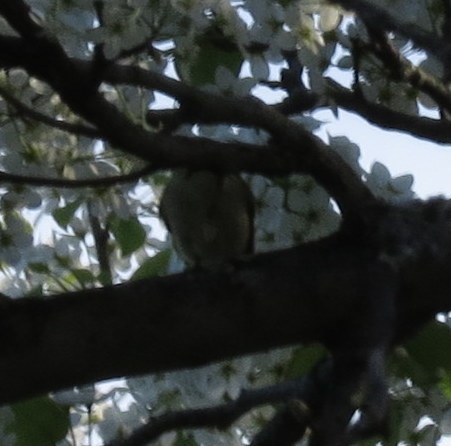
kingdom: Animalia
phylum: Chordata
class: Aves
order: Passeriformes
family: Regulidae
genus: Regulus
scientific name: Regulus calendula
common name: Ruby-crowned kinglet
